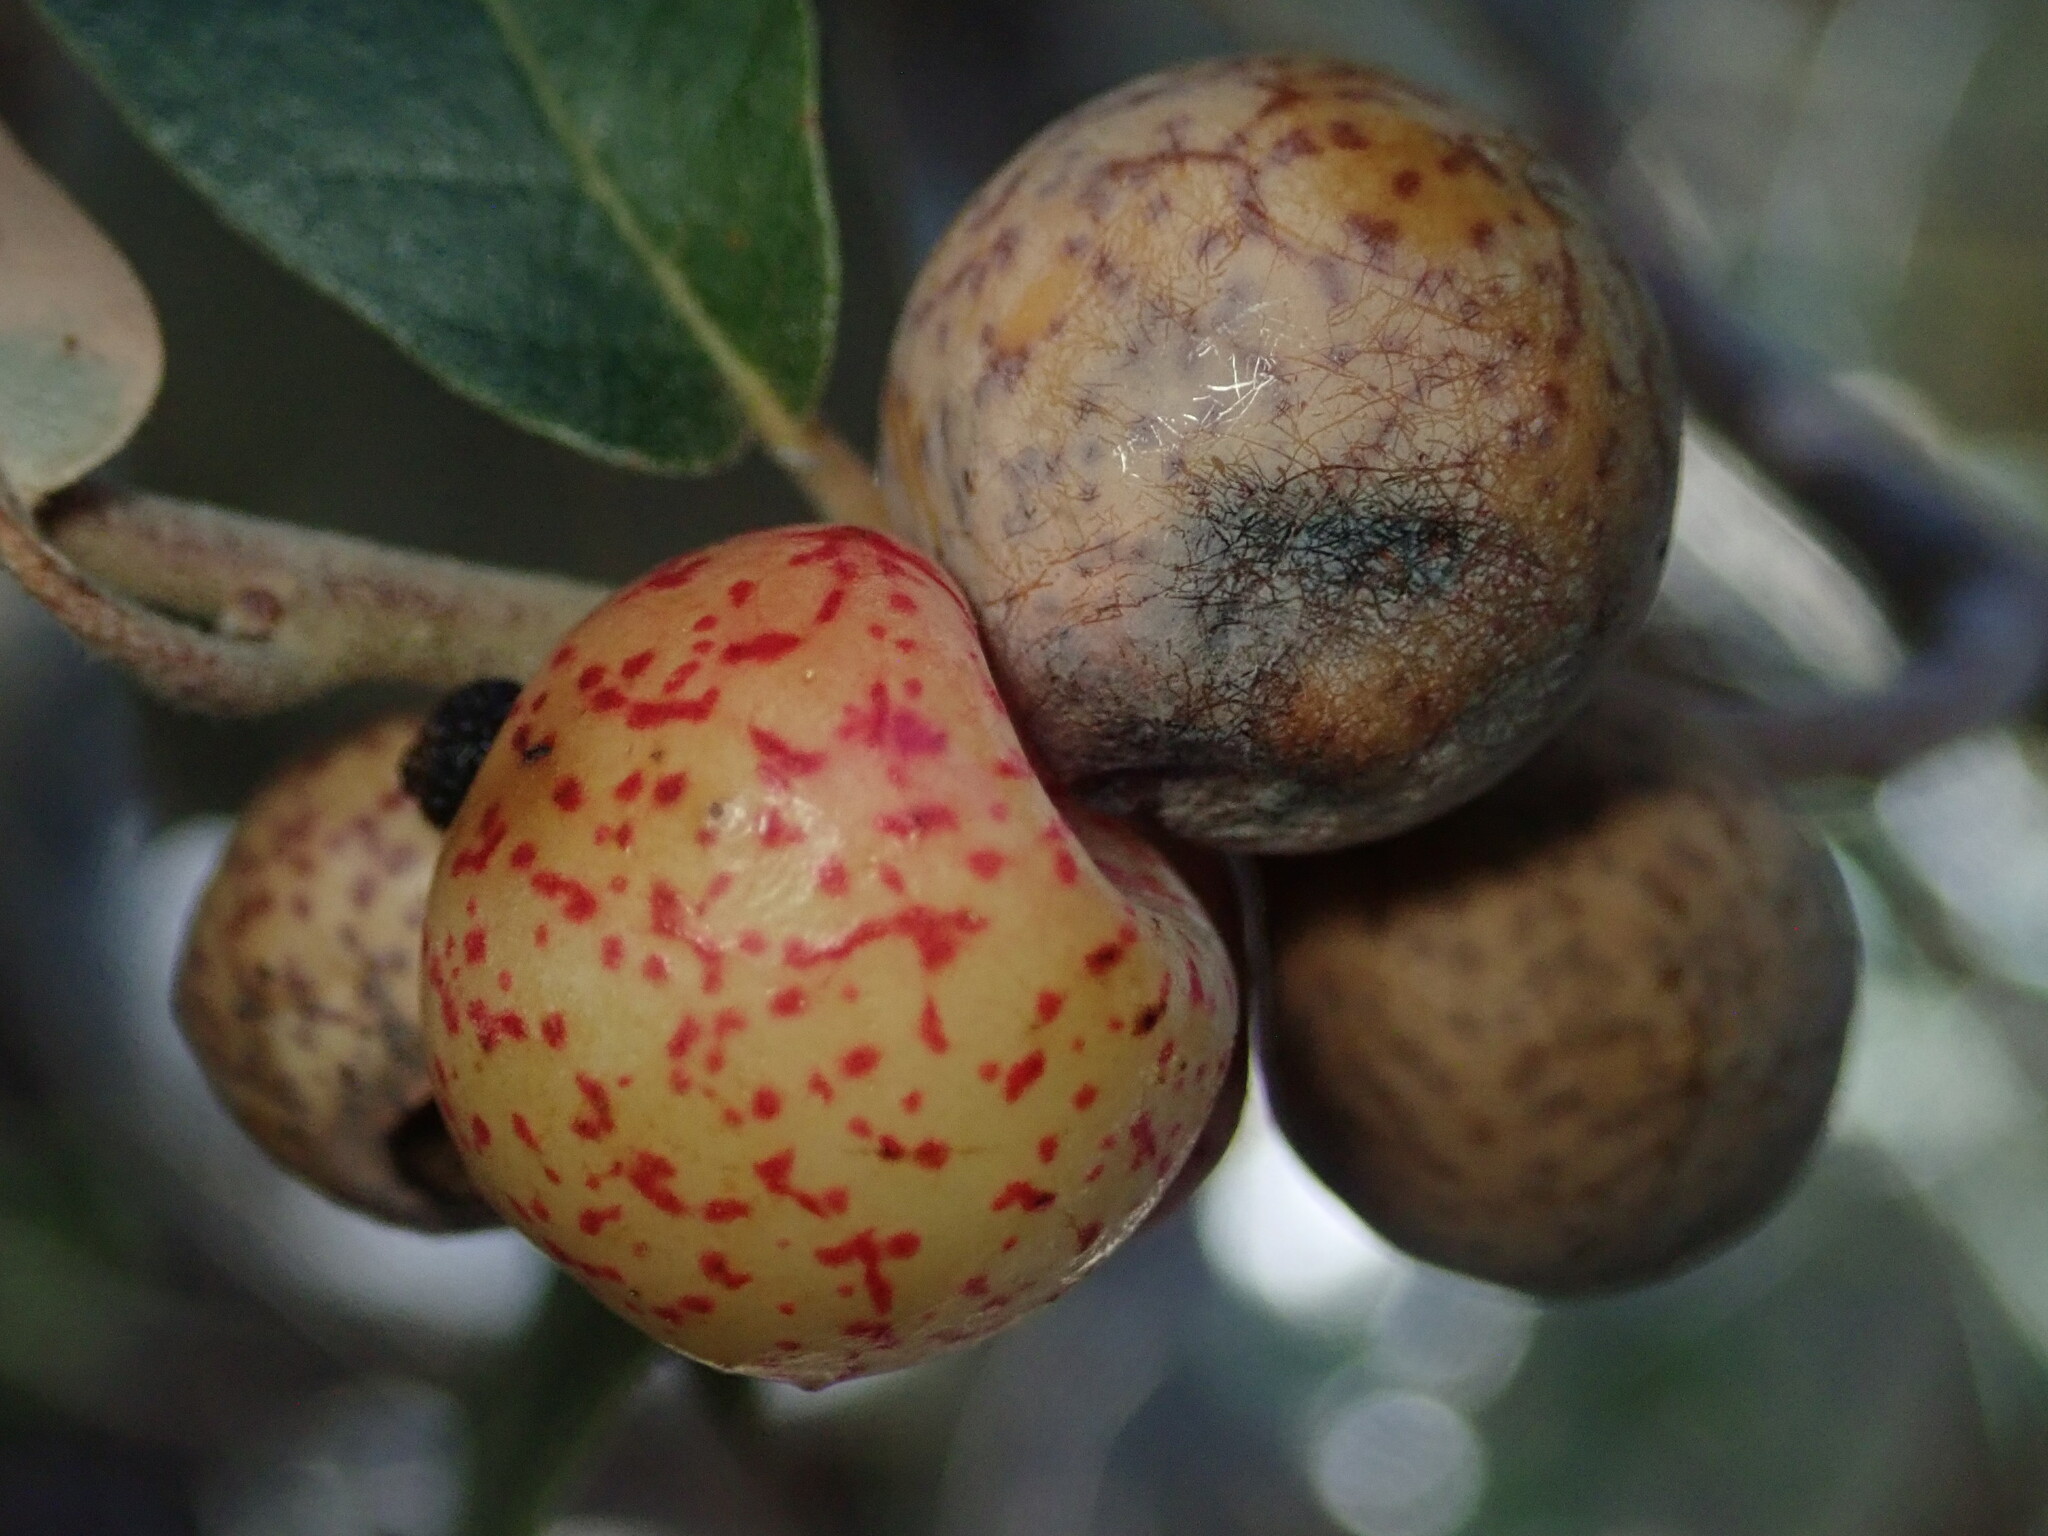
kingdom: Animalia
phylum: Arthropoda
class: Insecta
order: Hymenoptera
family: Cynipidae
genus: Atrusca
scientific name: Atrusca
